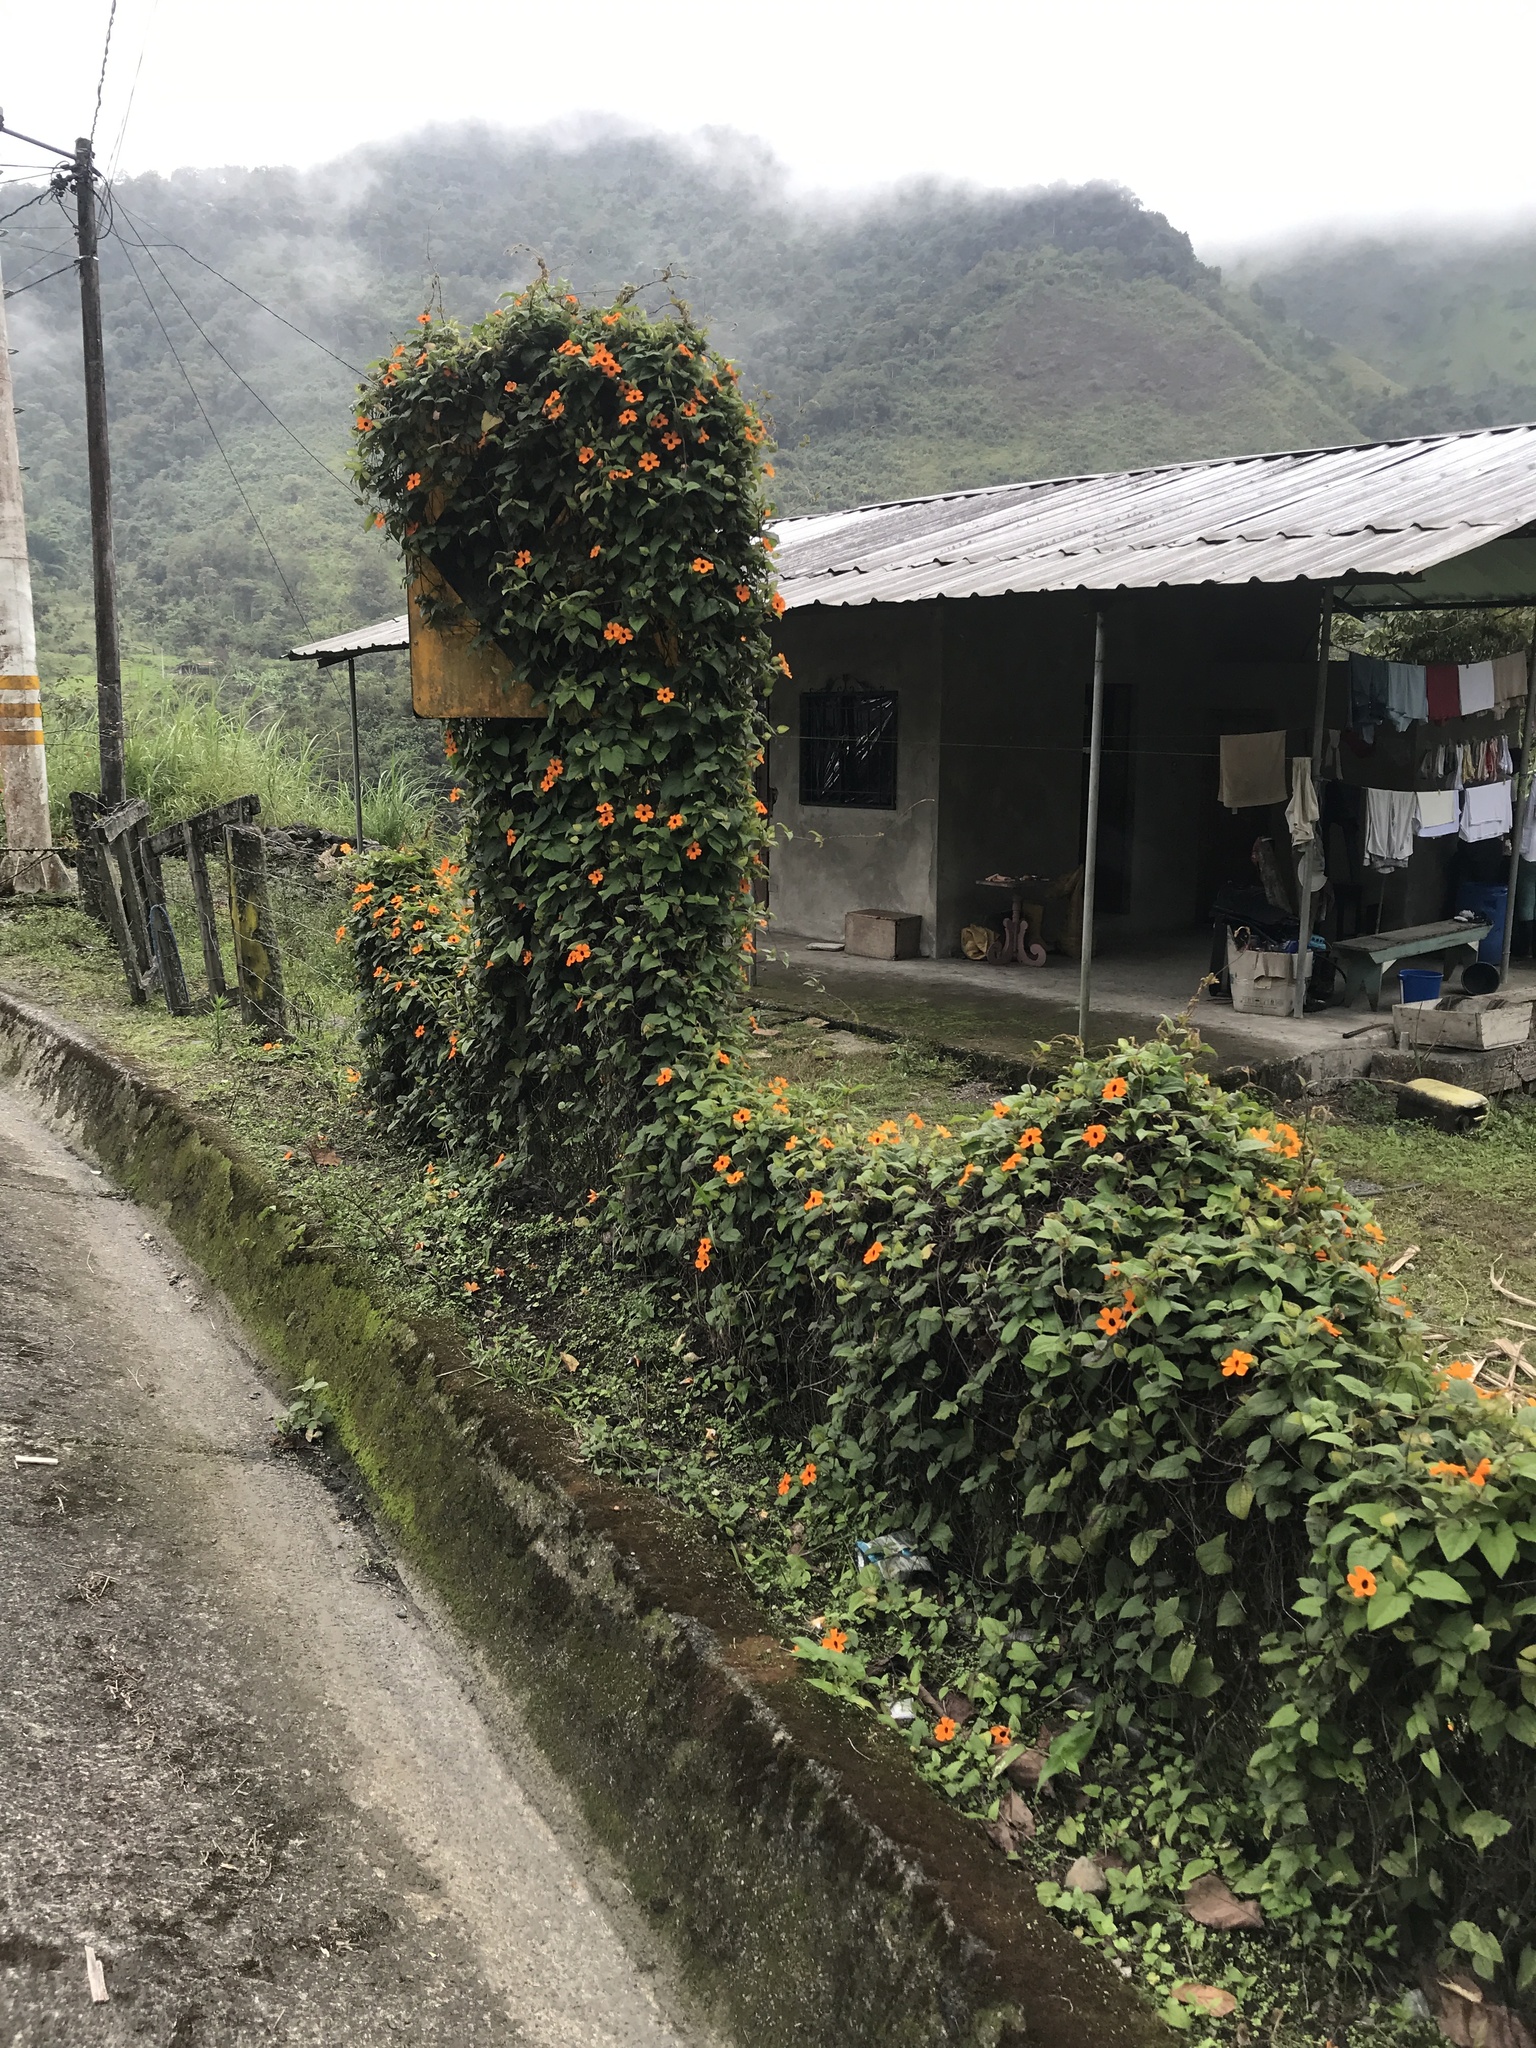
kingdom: Plantae
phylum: Tracheophyta
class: Magnoliopsida
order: Lamiales
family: Acanthaceae
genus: Thunbergia
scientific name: Thunbergia alata
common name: Blackeyed susan vine
